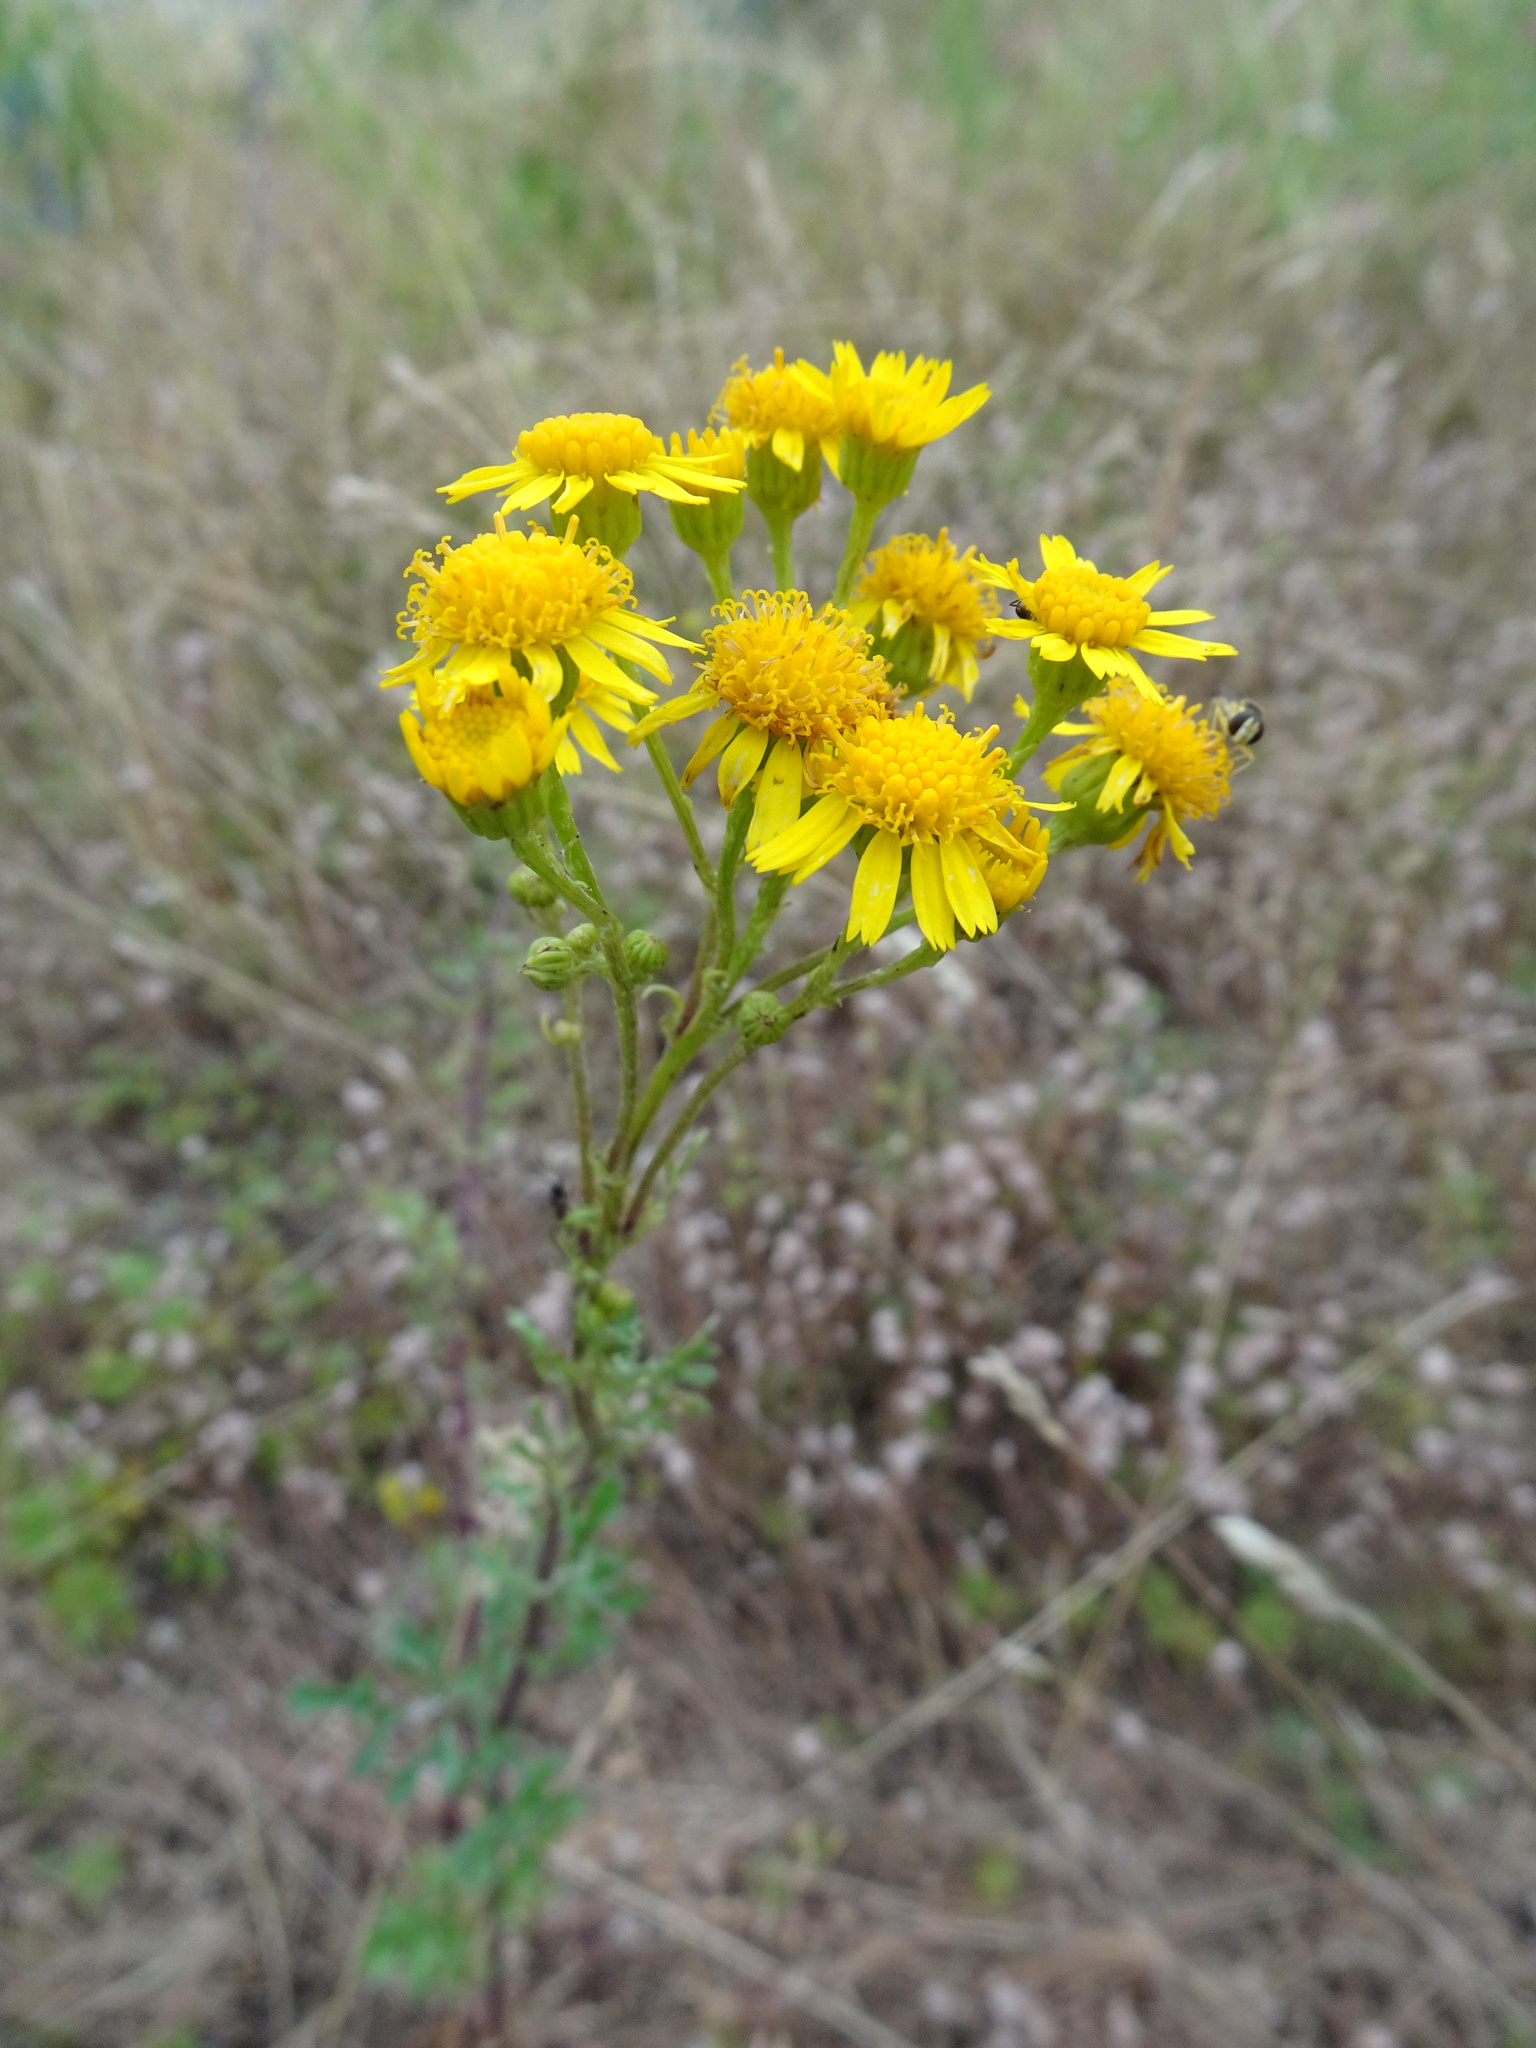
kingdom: Plantae
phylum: Tracheophyta
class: Magnoliopsida
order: Asterales
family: Asteraceae
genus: Jacobaea
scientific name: Jacobaea vulgaris
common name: Stinking willie
